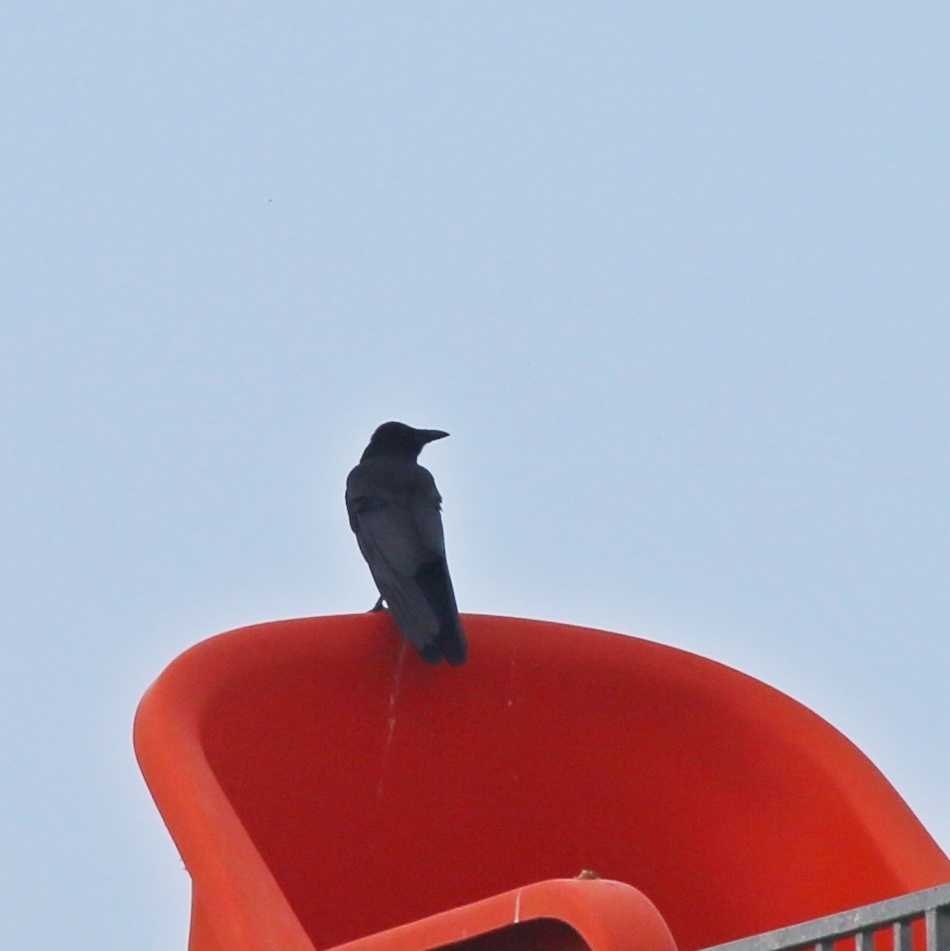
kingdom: Animalia
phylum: Chordata
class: Aves
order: Passeriformes
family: Corvidae
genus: Corvus
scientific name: Corvus corone
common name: Carrion crow
